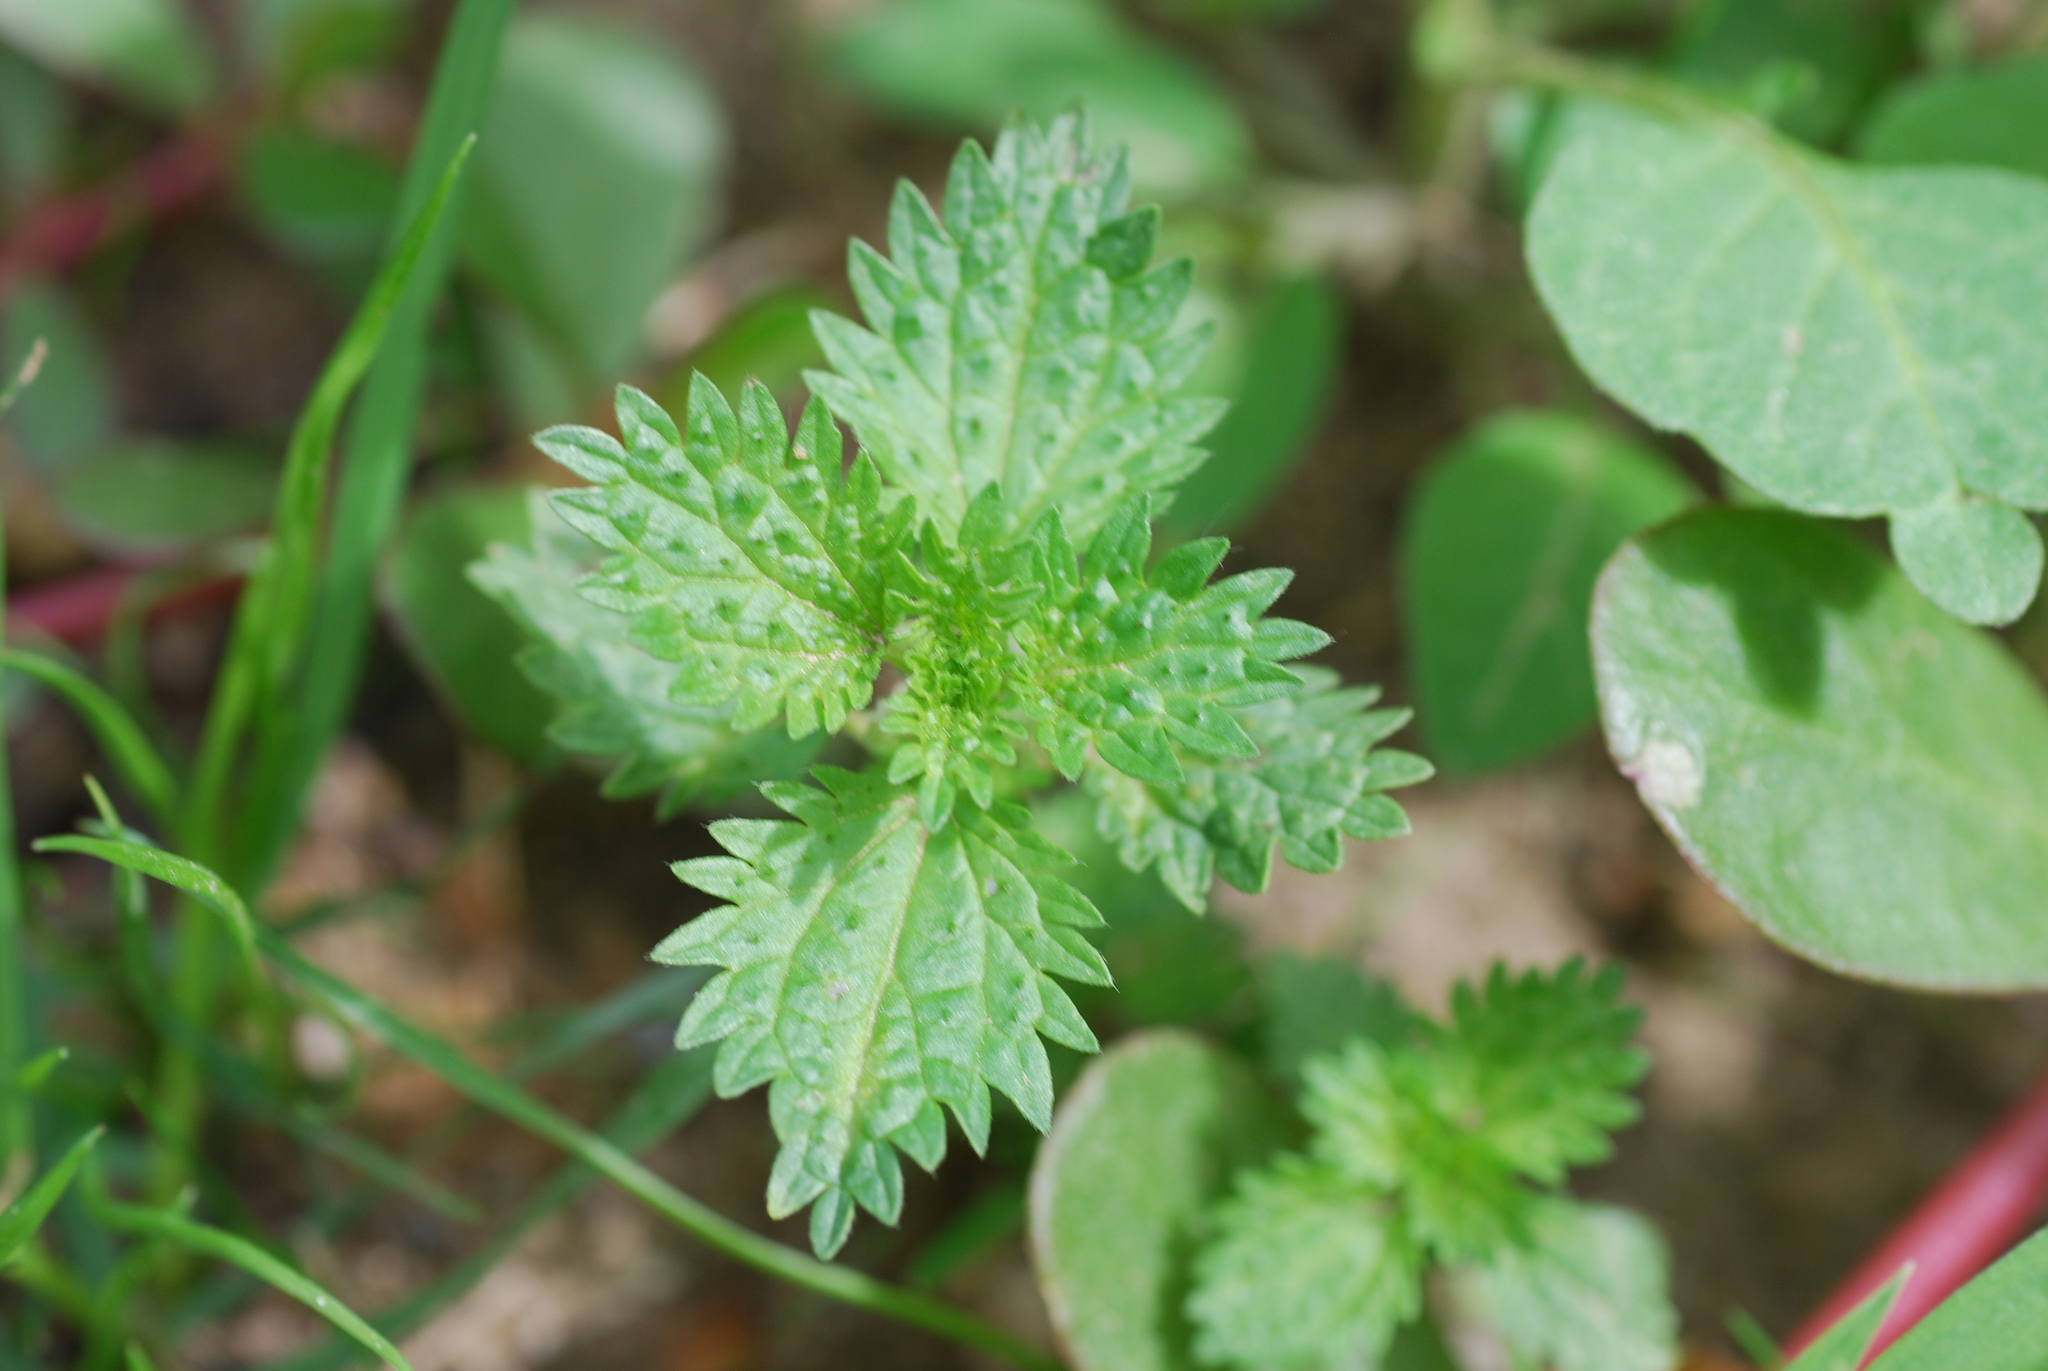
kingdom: Plantae
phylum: Tracheophyta
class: Magnoliopsida
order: Rosales
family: Urticaceae
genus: Urtica
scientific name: Urtica urens
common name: Dwarf nettle
